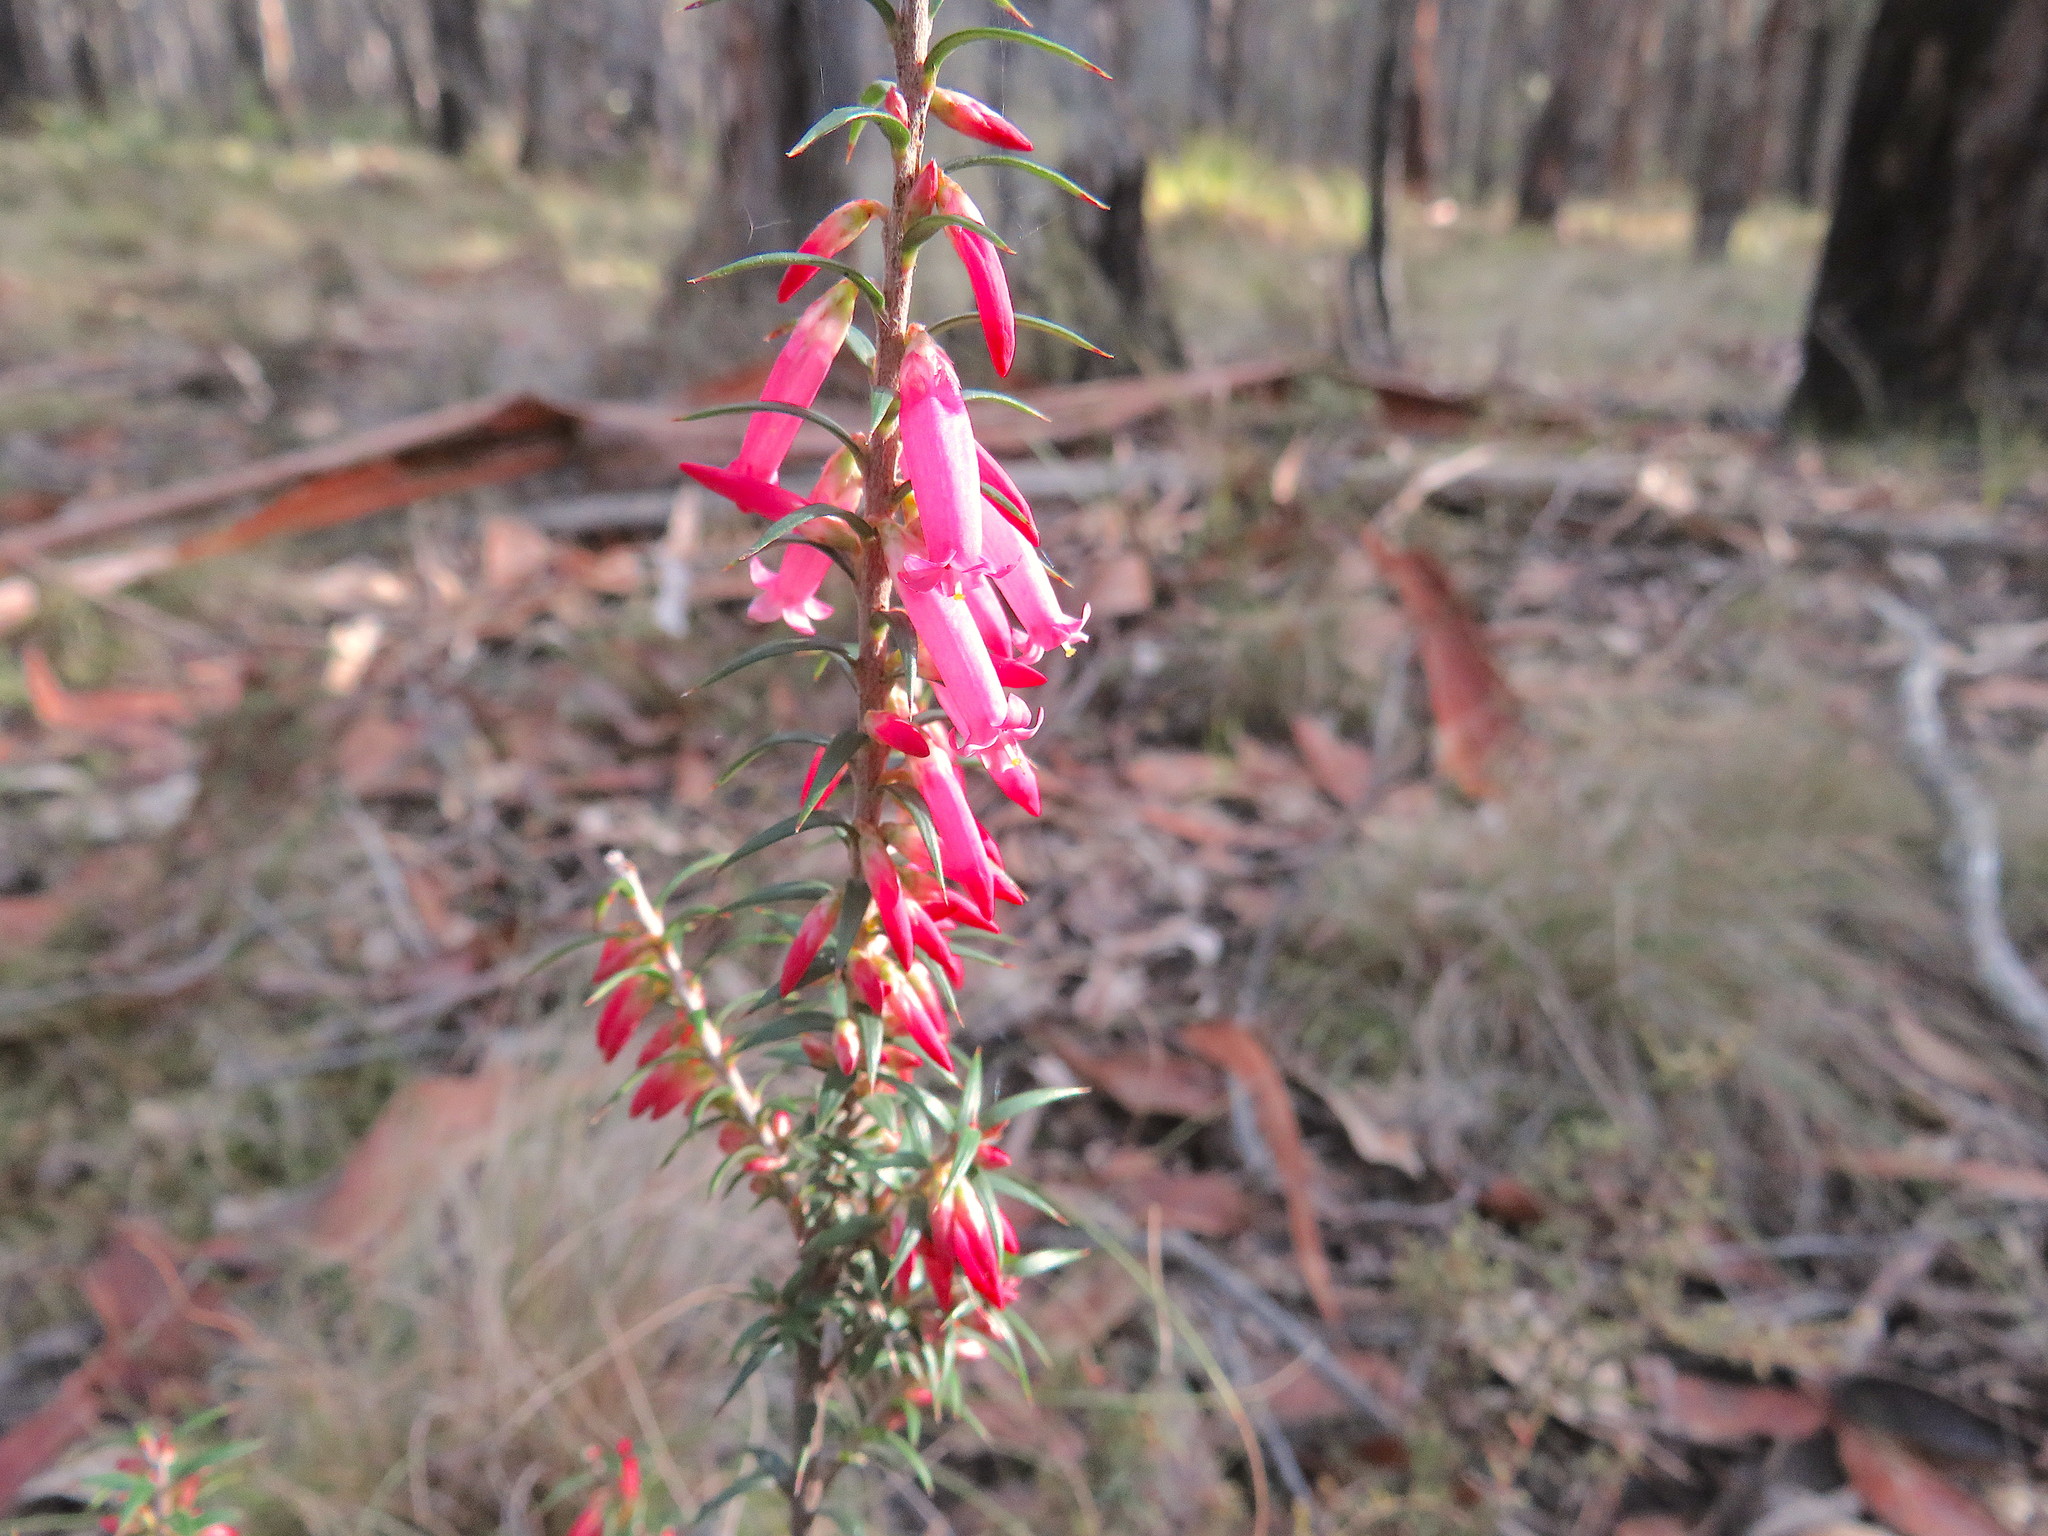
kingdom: Plantae
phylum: Tracheophyta
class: Magnoliopsida
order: Ericales
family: Ericaceae
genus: Epacris
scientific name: Epacris impressa
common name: Common-heath
